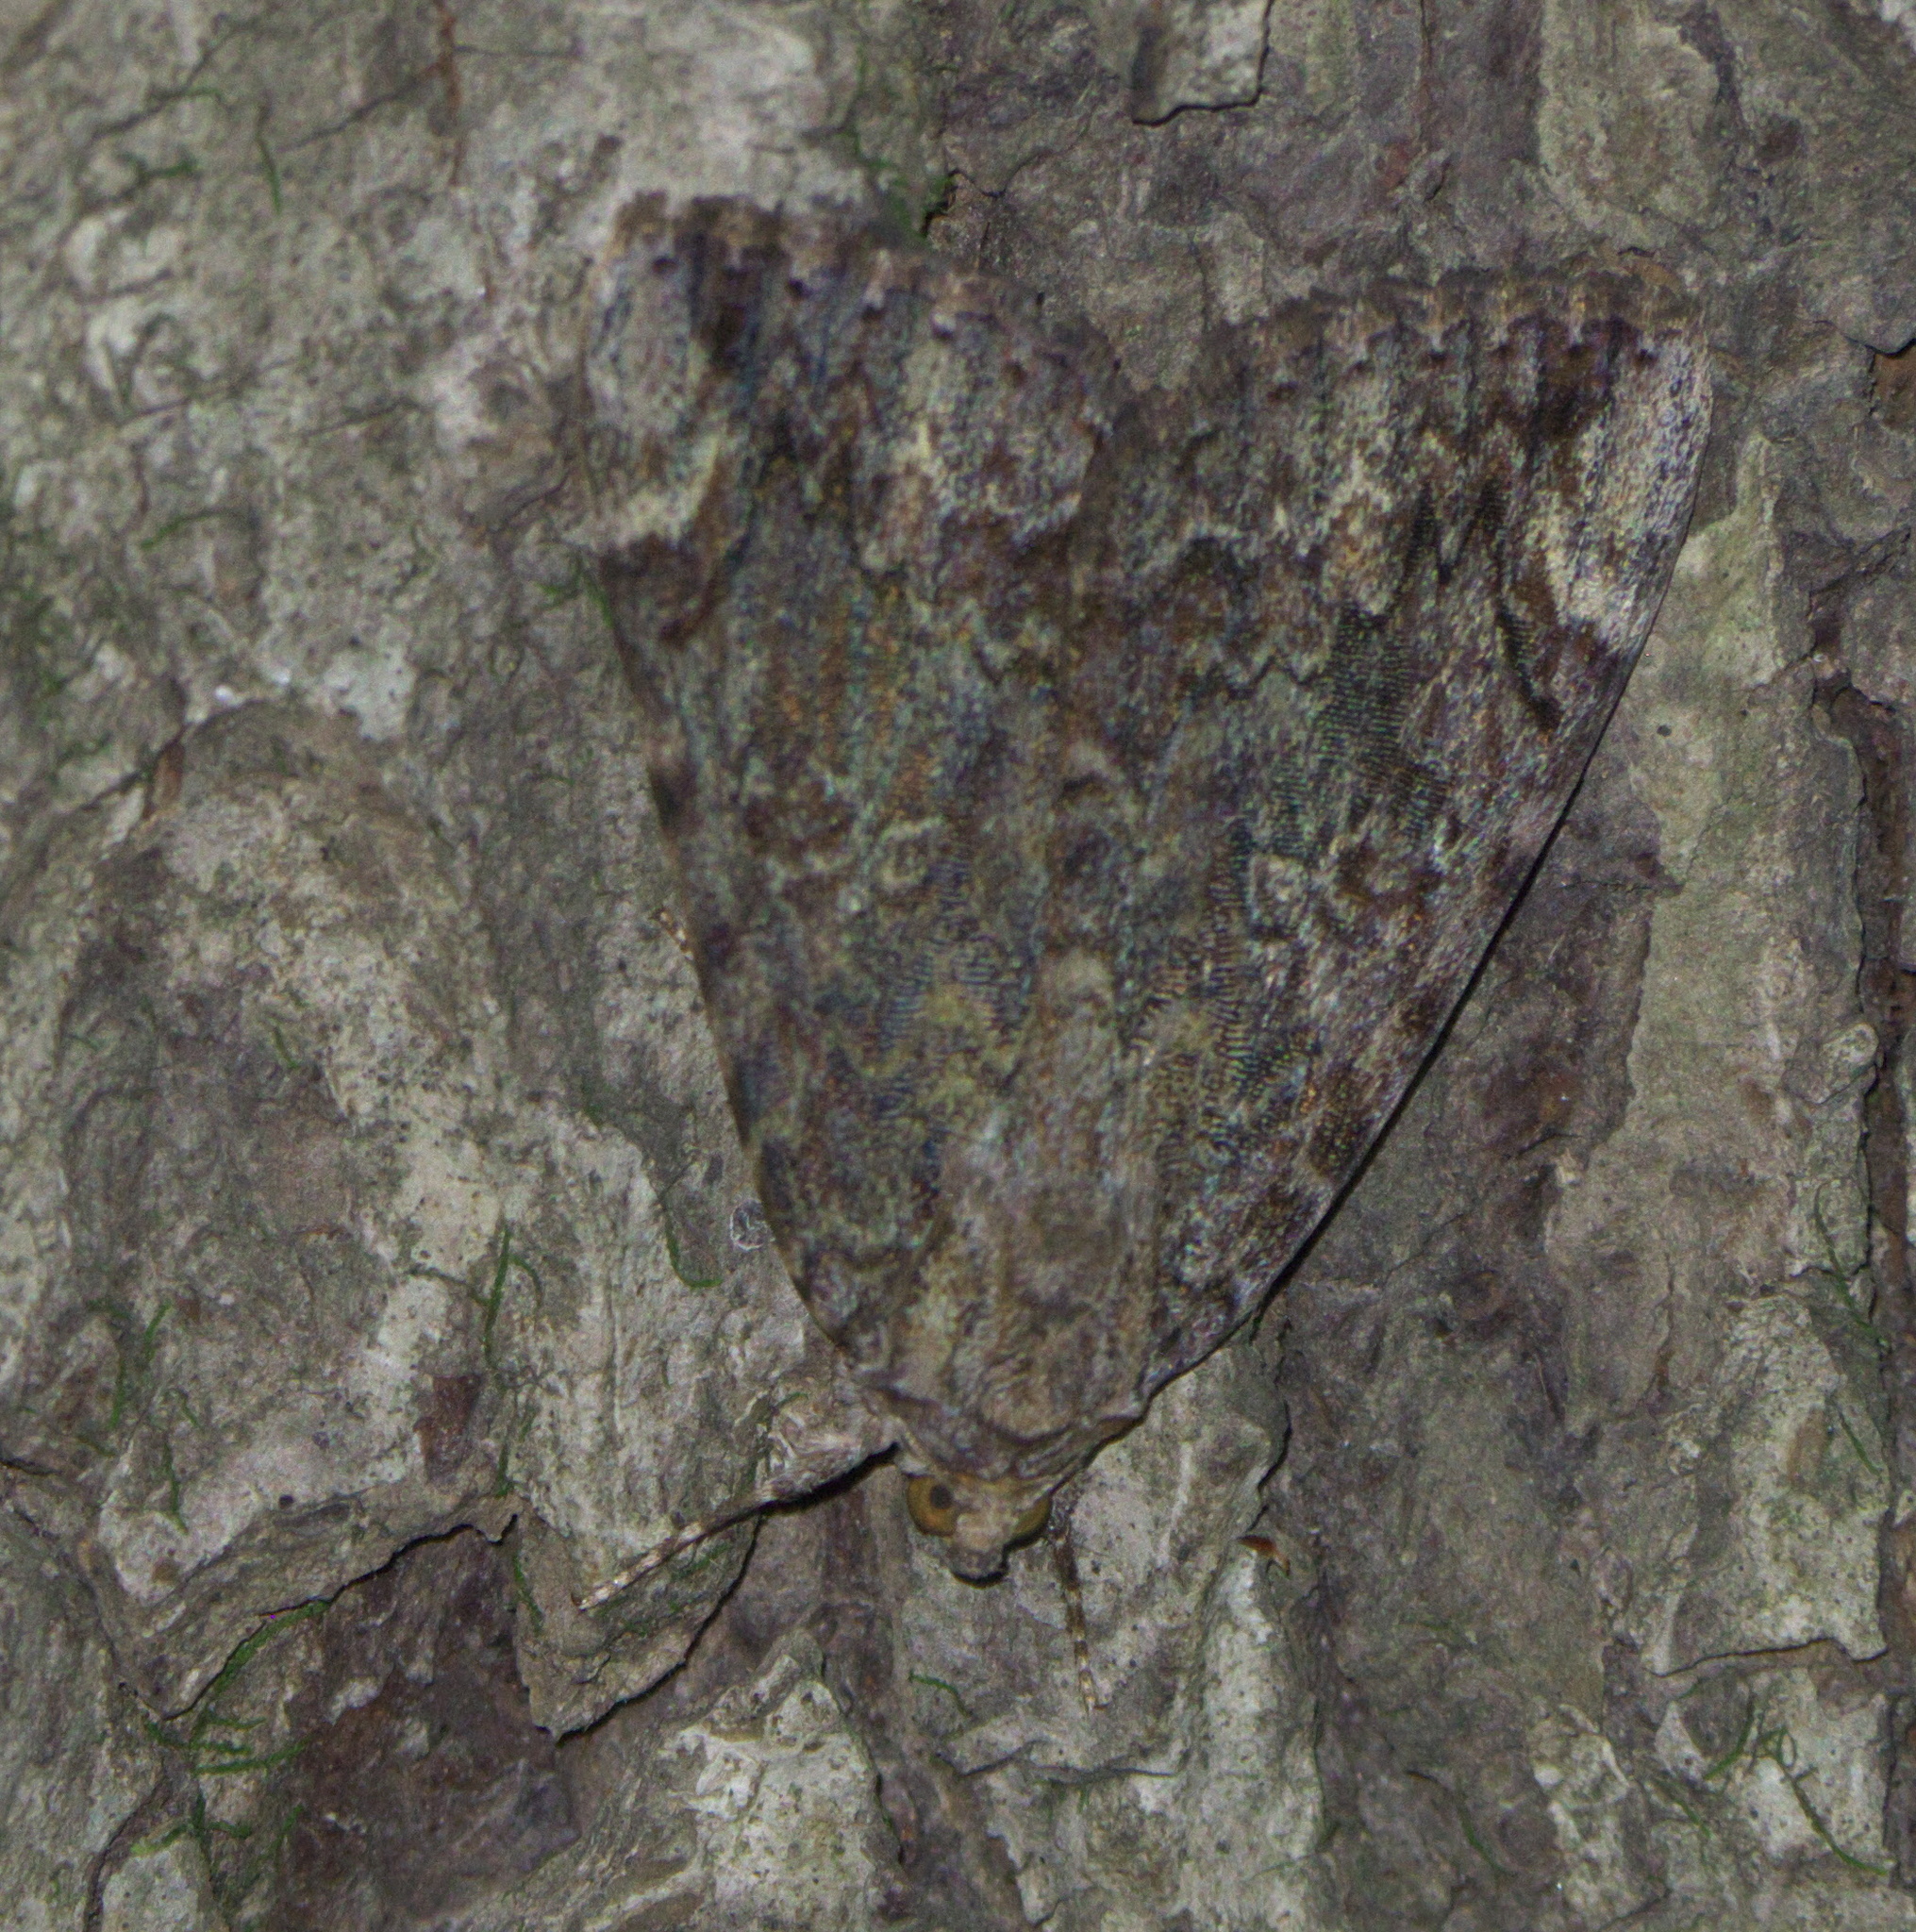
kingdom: Animalia
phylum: Arthropoda
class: Insecta
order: Lepidoptera
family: Erebidae
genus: Catocala
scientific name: Catocala innubens
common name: Betrothed underwing
